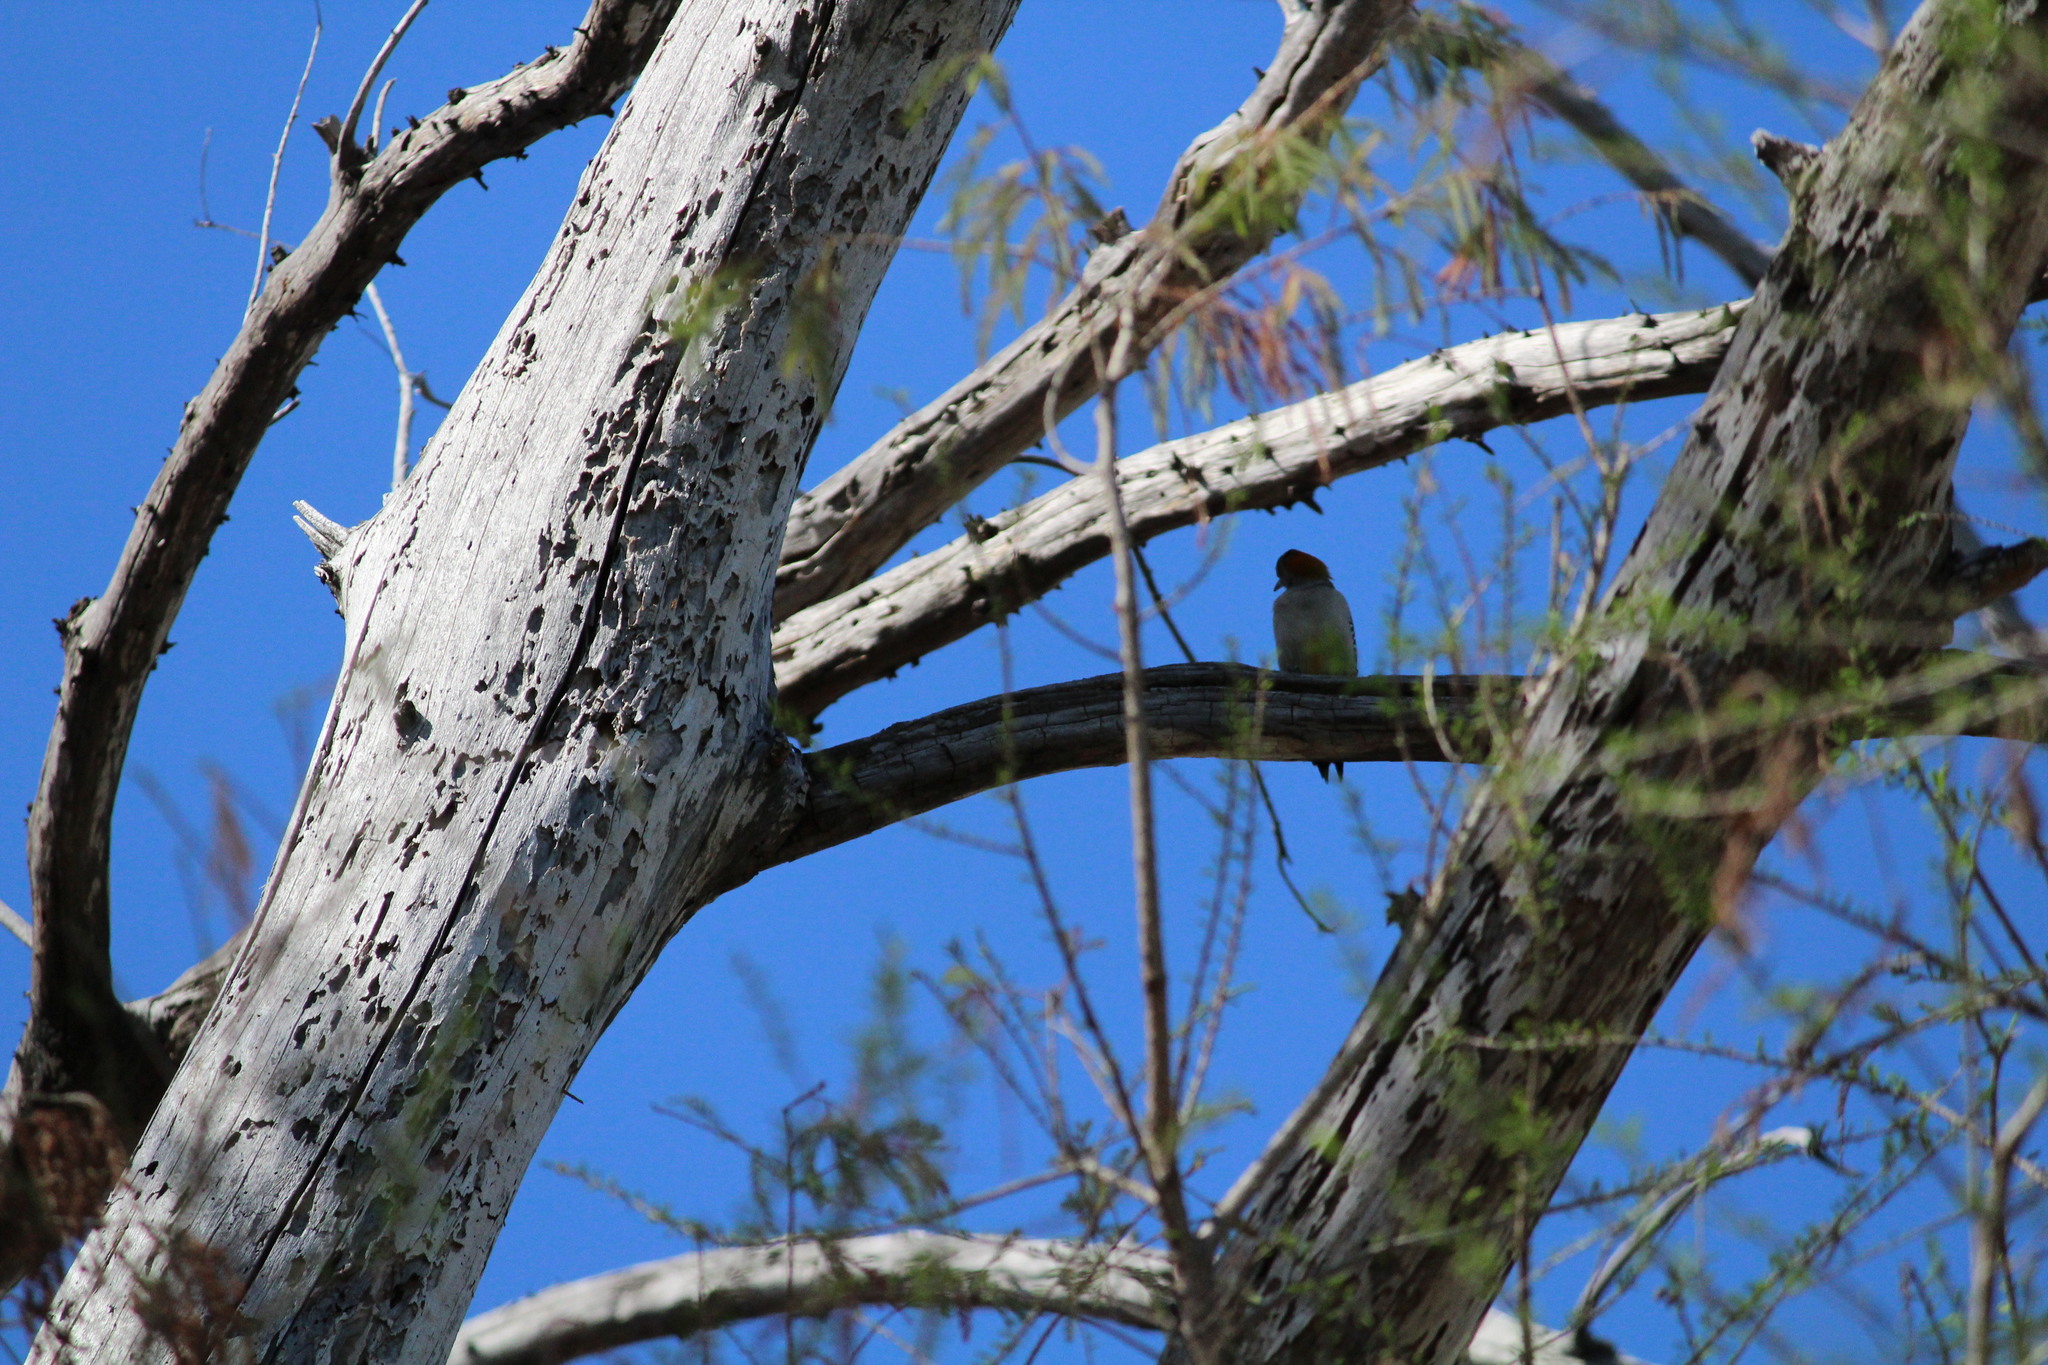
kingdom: Animalia
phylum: Chordata
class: Aves
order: Piciformes
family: Picidae
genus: Melanerpes
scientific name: Melanerpes aurifrons
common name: Golden-fronted woodpecker
